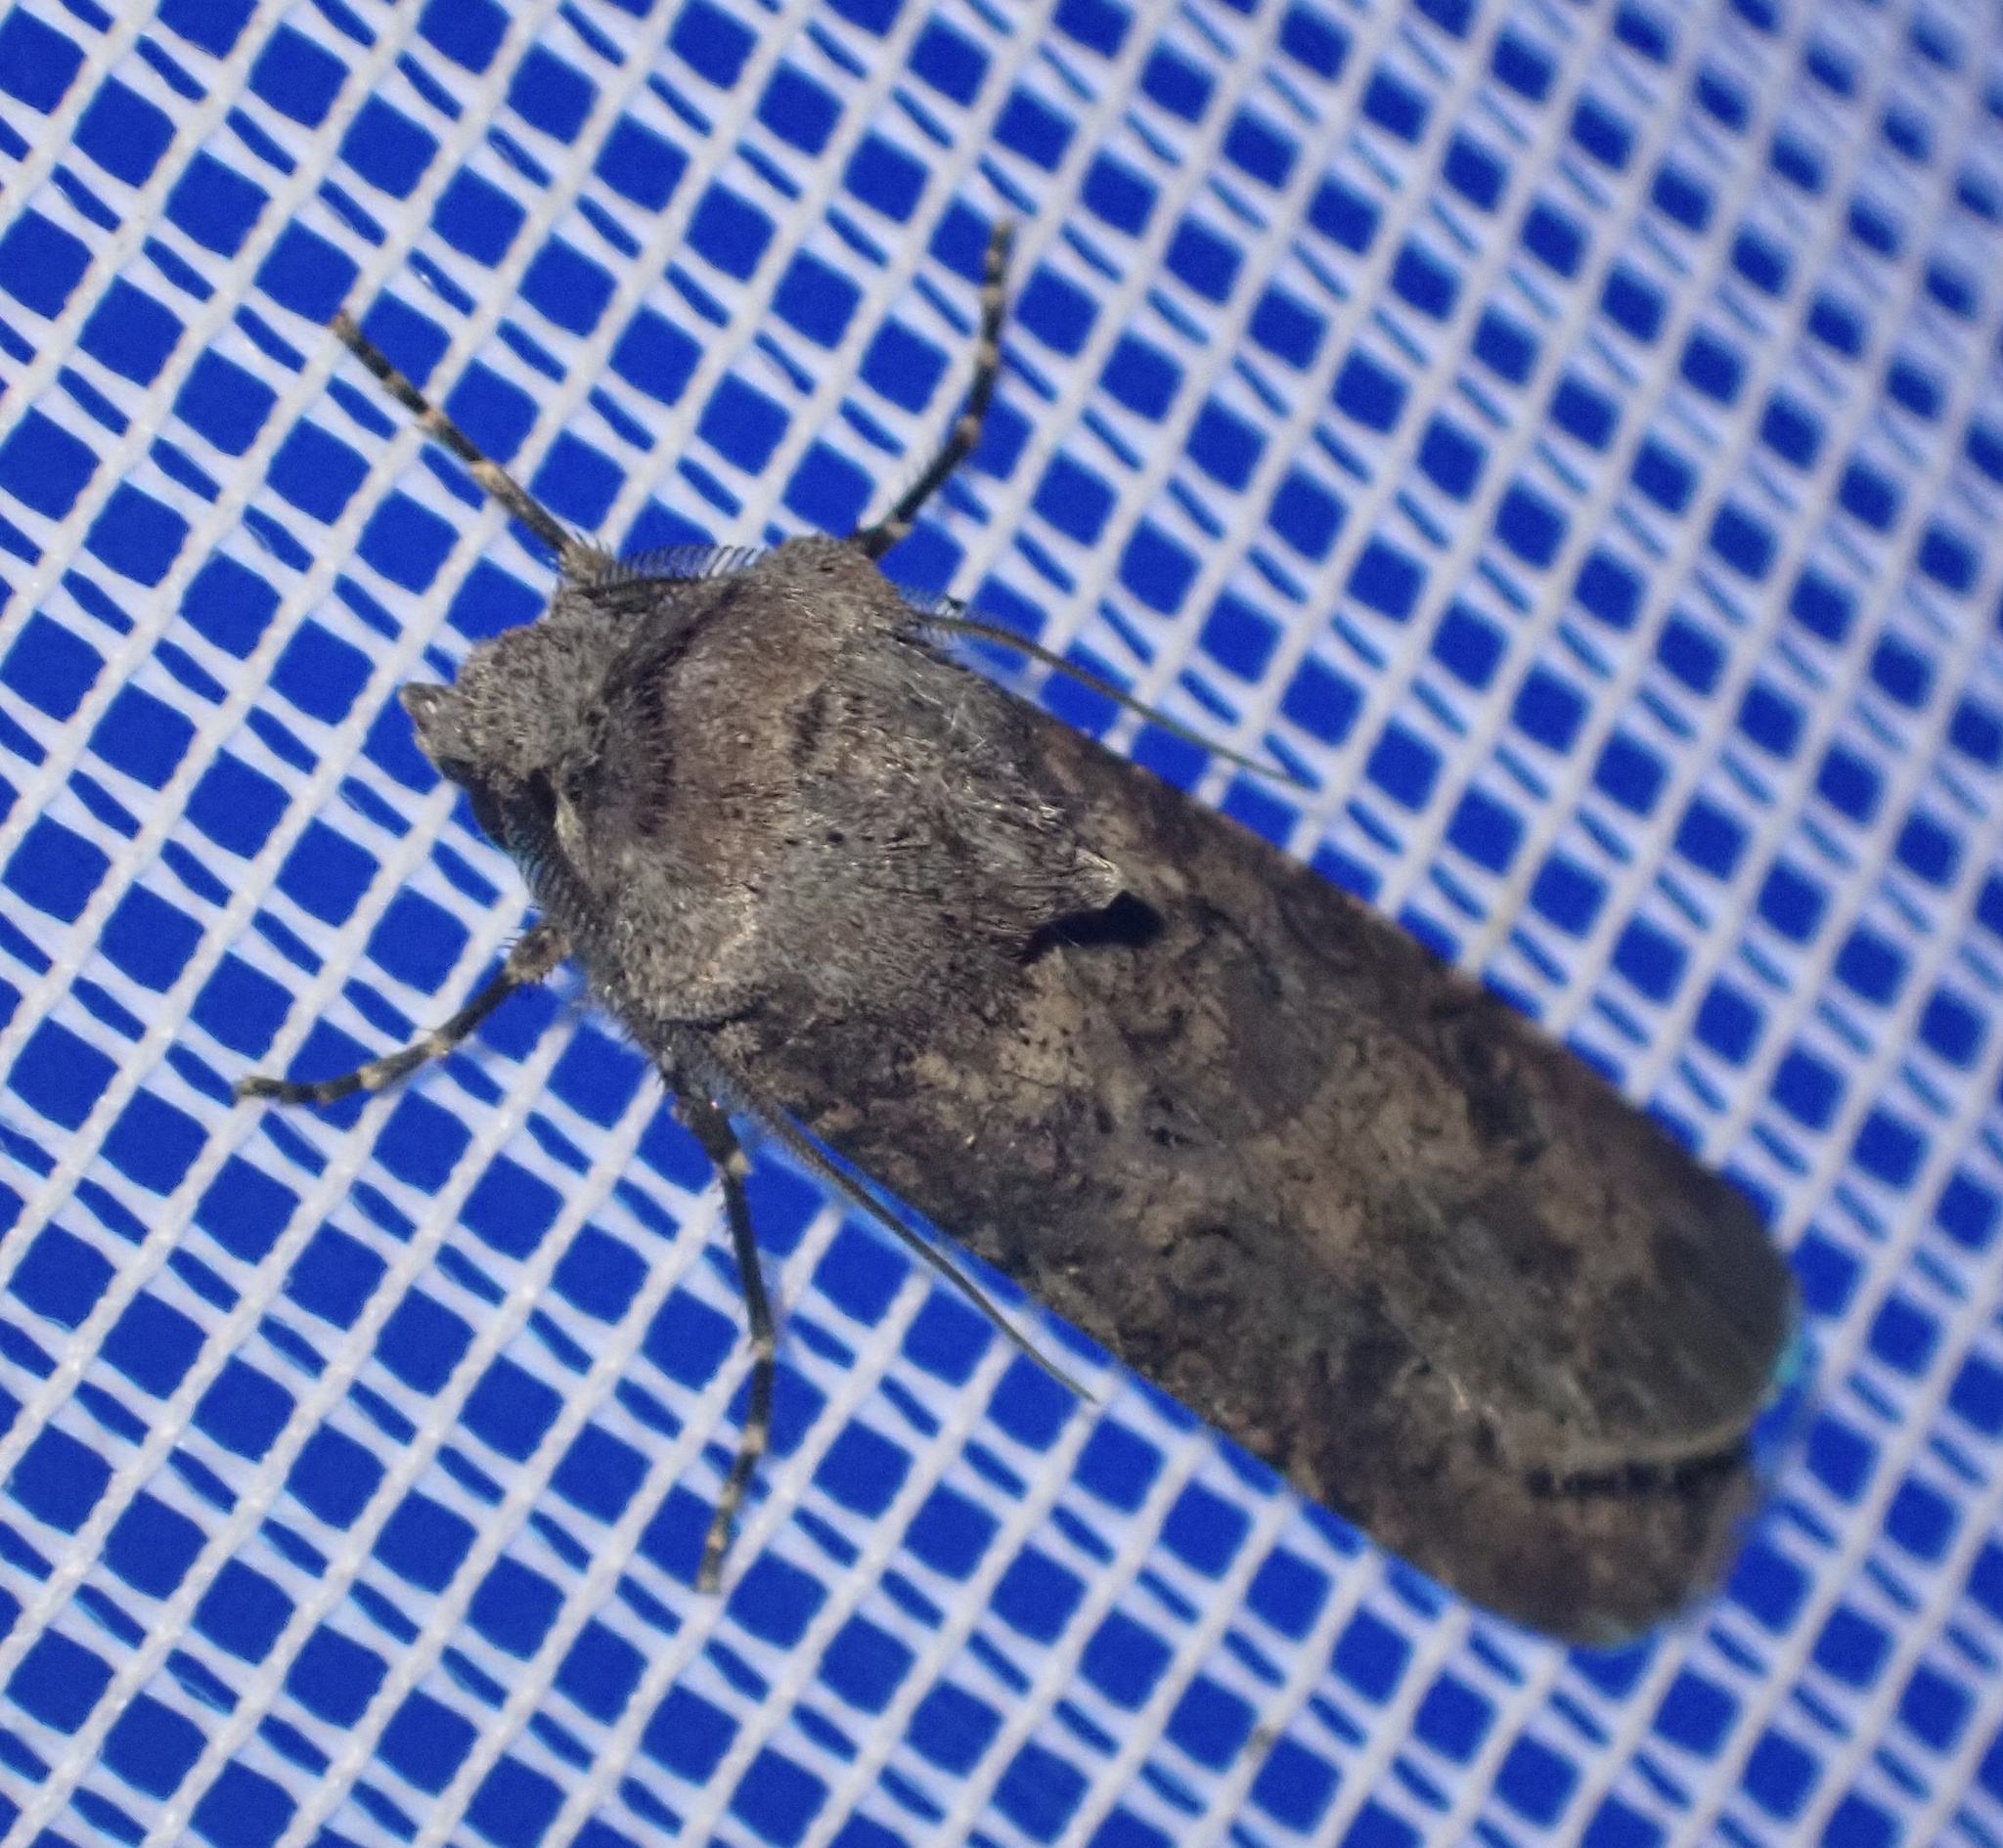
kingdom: Animalia
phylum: Arthropoda
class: Insecta
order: Lepidoptera
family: Noctuidae
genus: Agrotis
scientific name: Agrotis segetum
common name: Turnip moth
